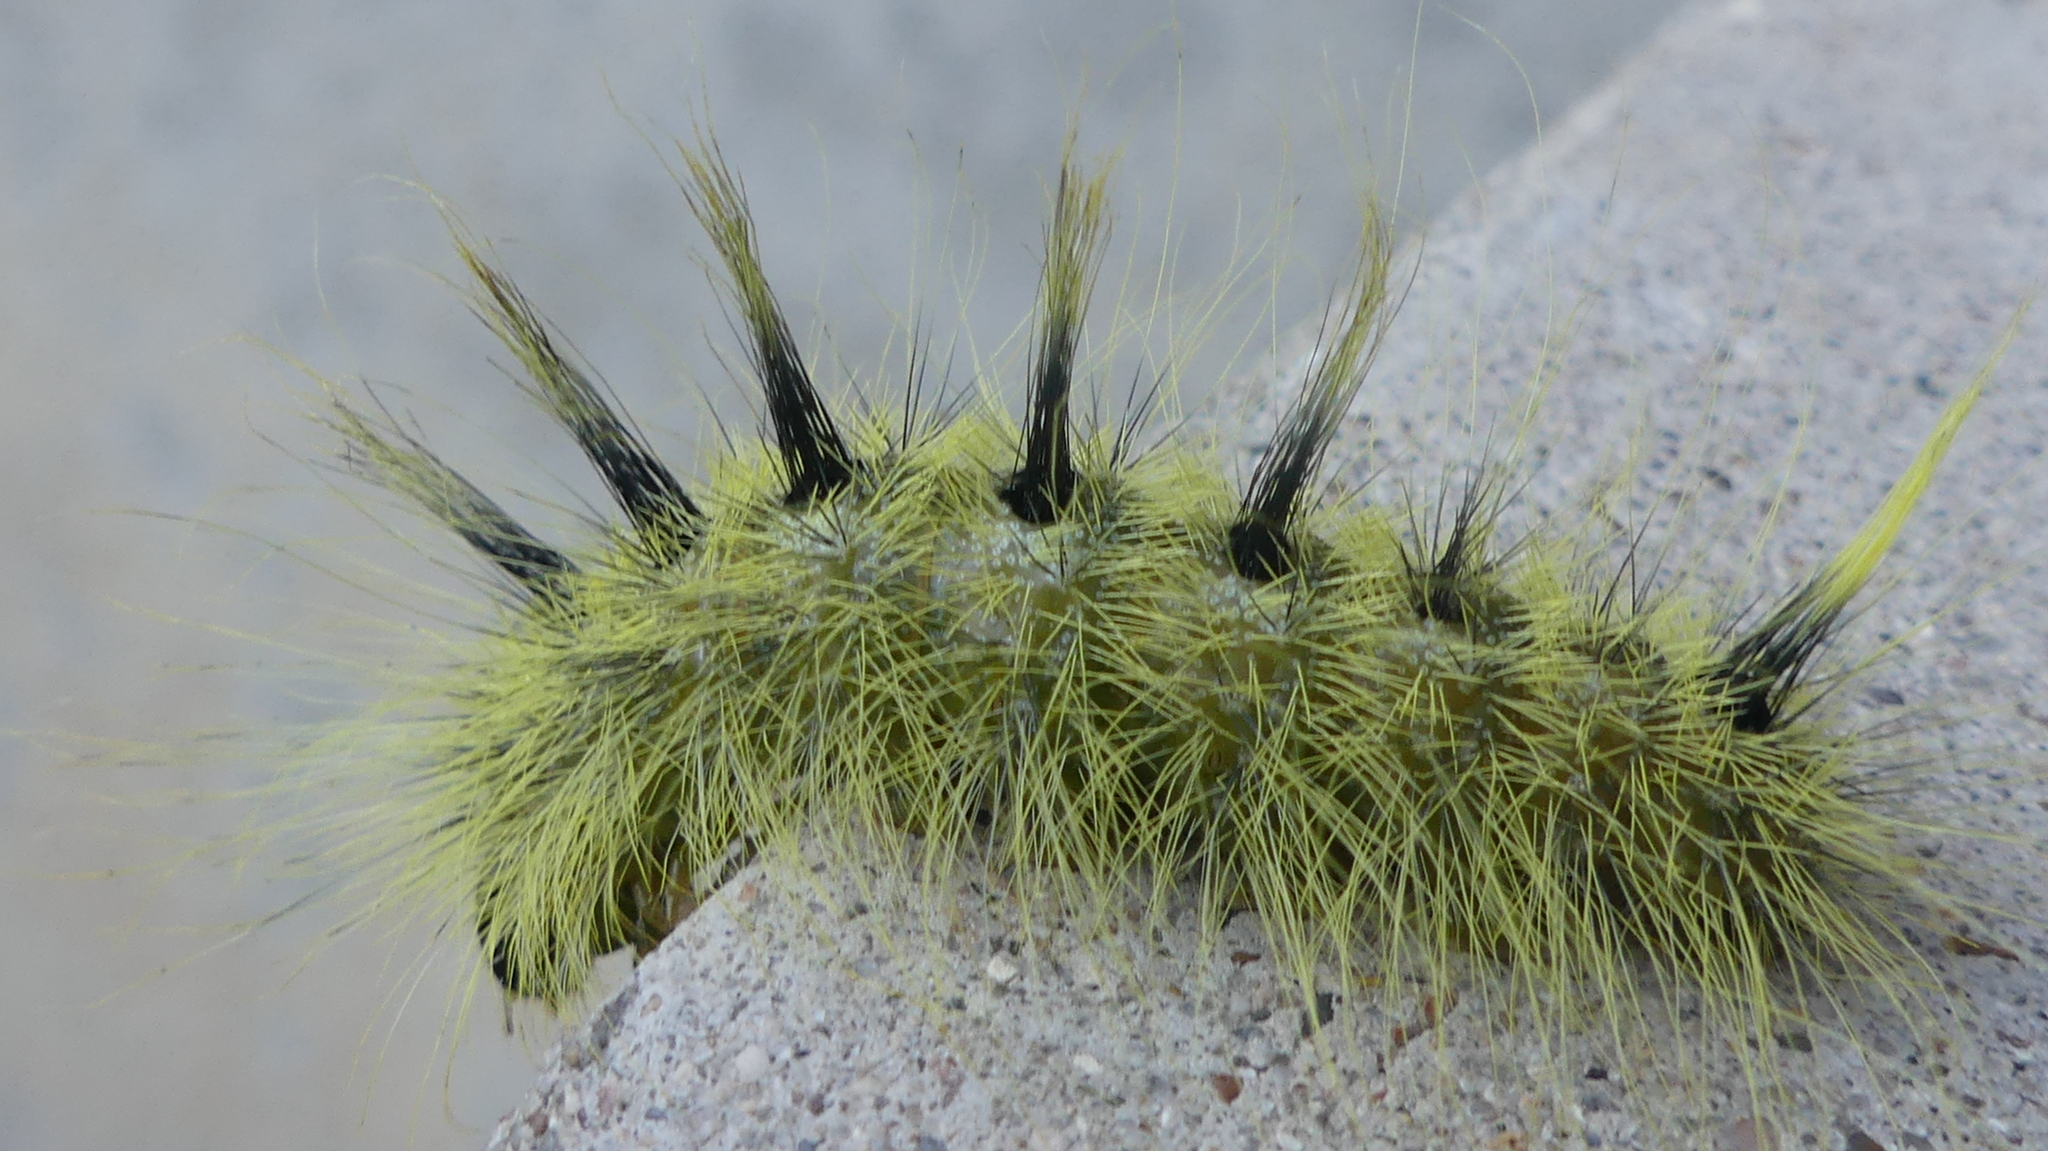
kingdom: Animalia
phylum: Arthropoda
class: Insecta
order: Lepidoptera
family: Noctuidae
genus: Acronicta
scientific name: Acronicta rubricoma
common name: Hackberry dagger
